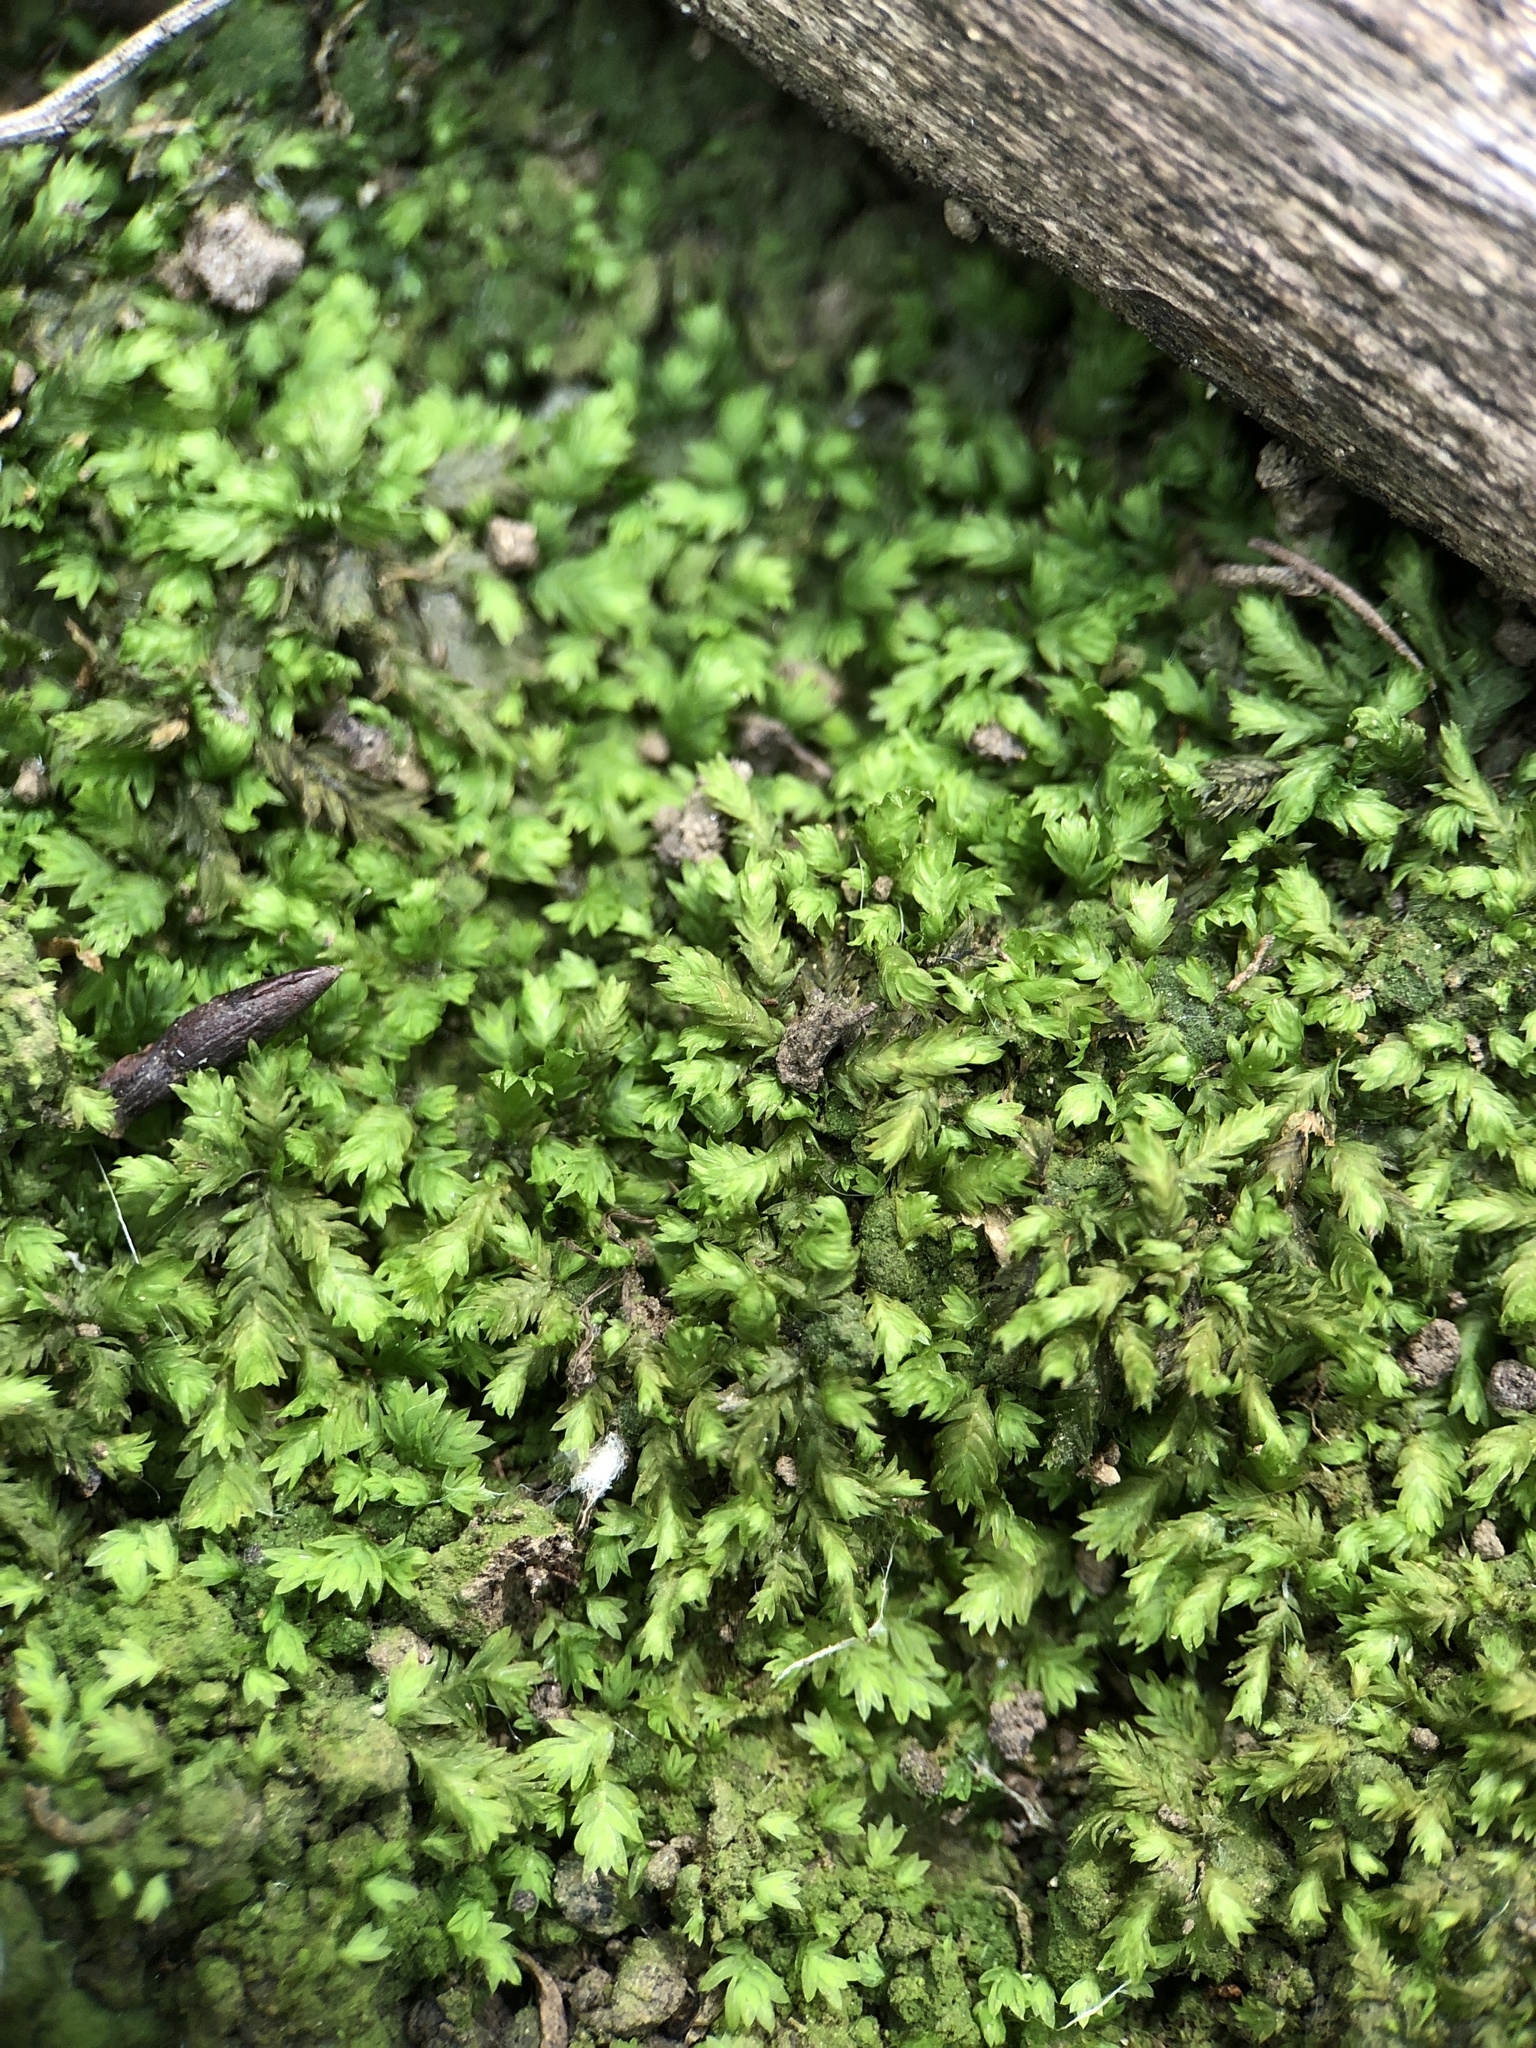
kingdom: Plantae
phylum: Bryophyta
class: Bryopsida
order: Dicranales
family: Fissidentaceae
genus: Fissidens
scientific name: Fissidens taxifolius
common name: Yew-leaved pocket moss
